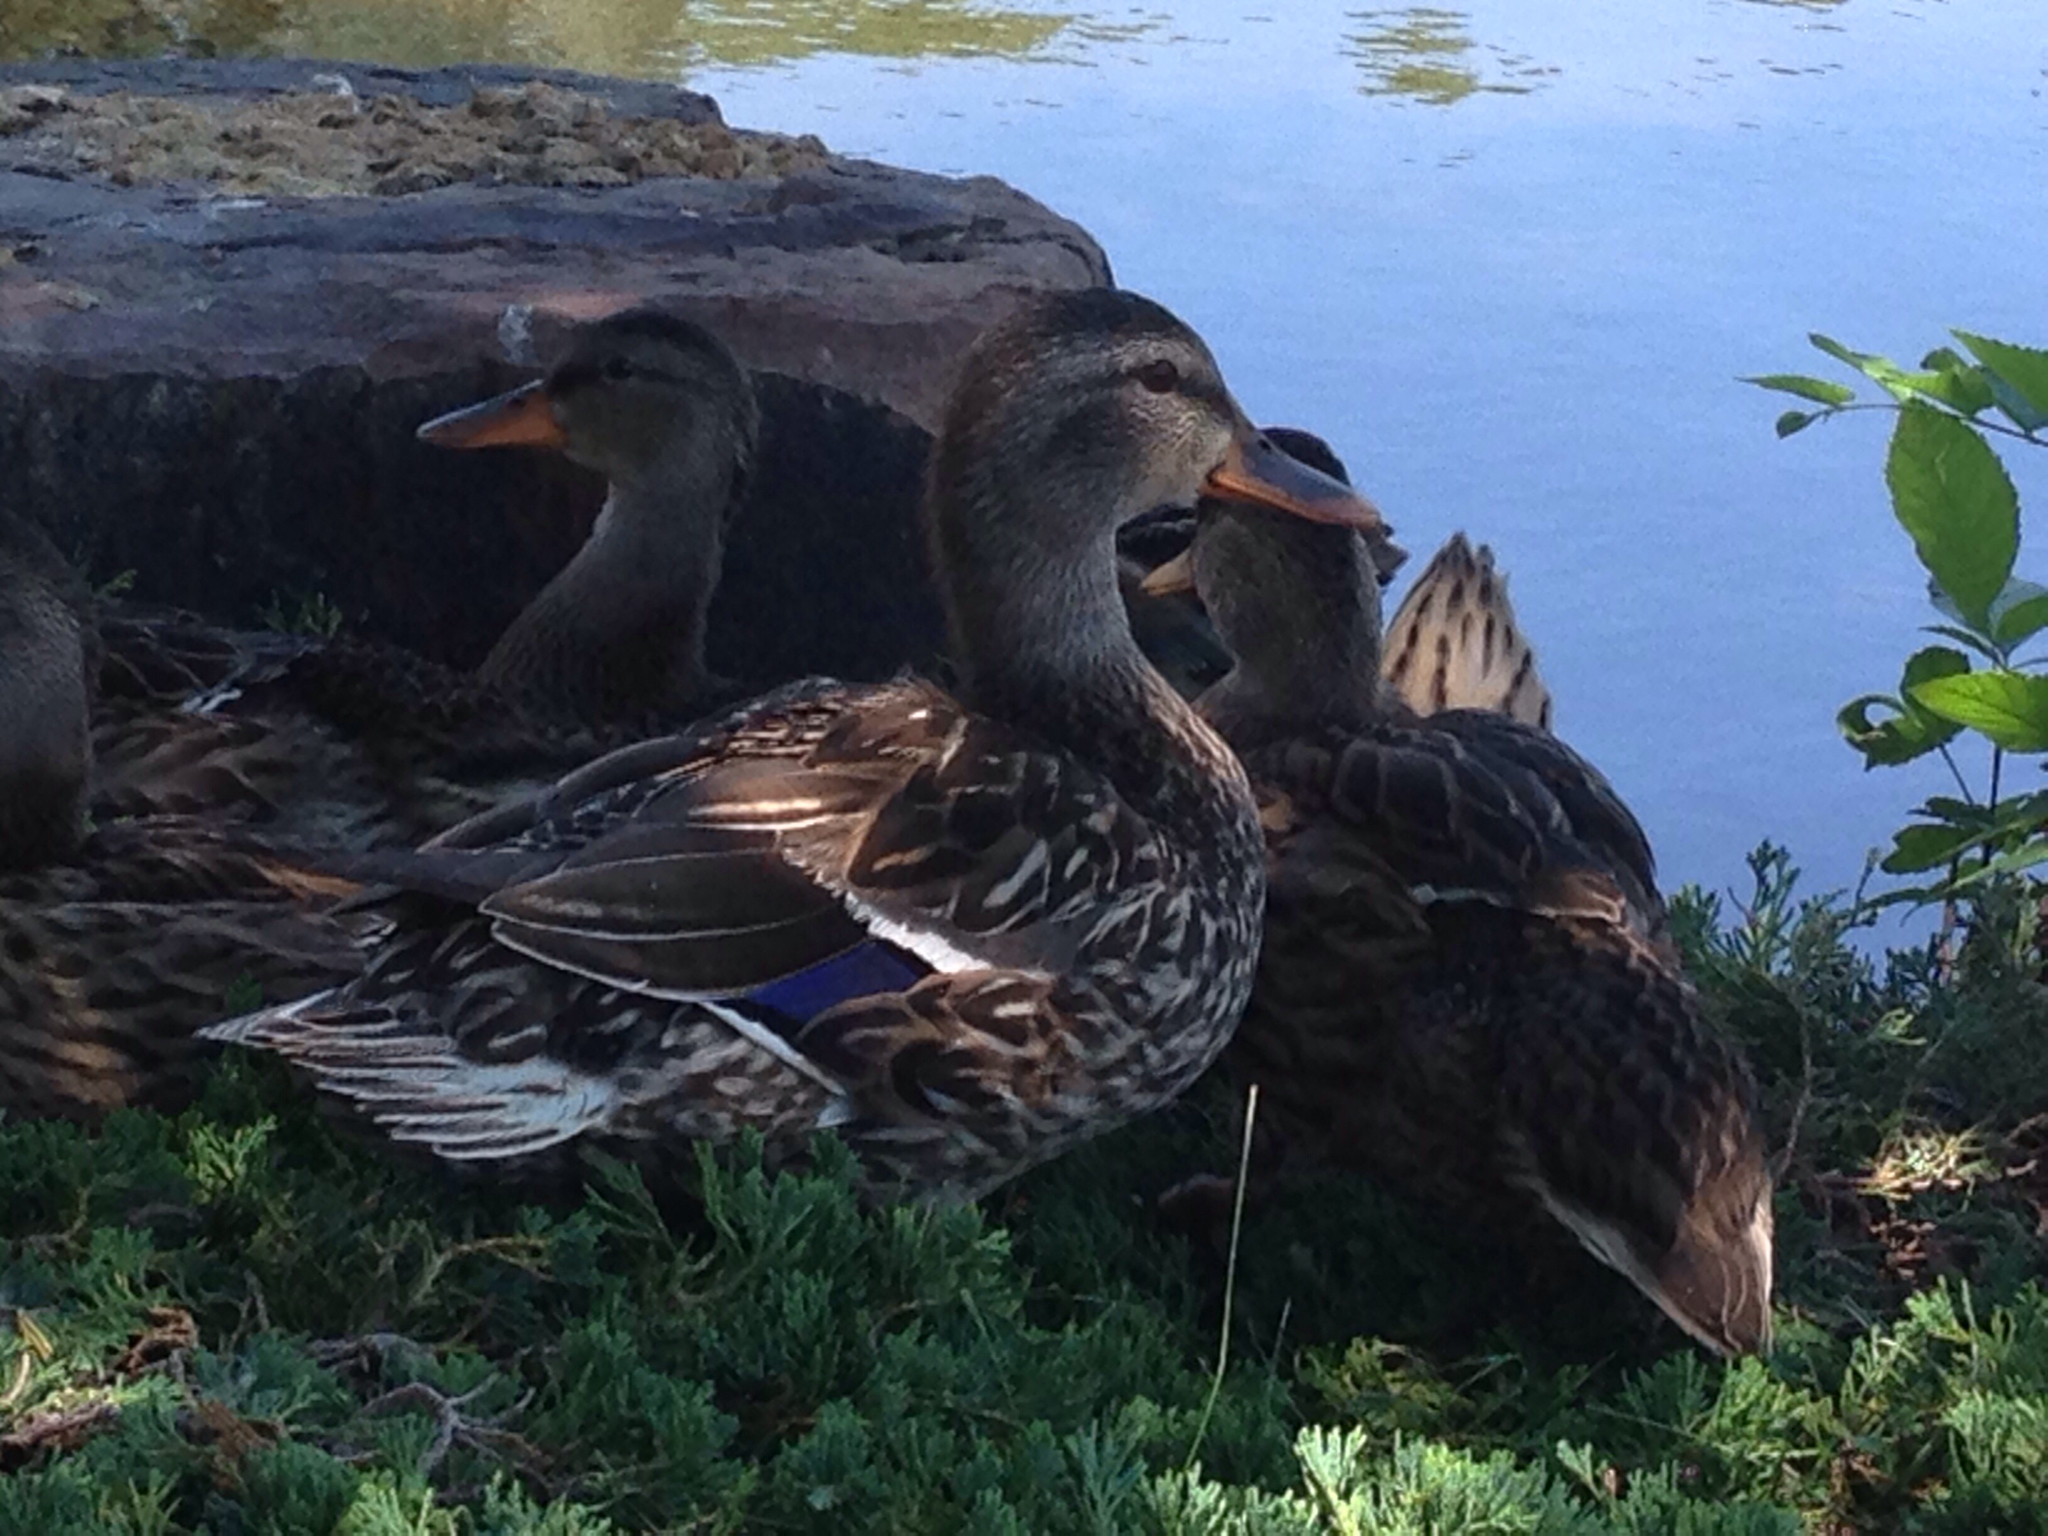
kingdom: Animalia
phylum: Chordata
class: Aves
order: Anseriformes
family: Anatidae
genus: Anas
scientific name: Anas platyrhynchos
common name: Mallard
